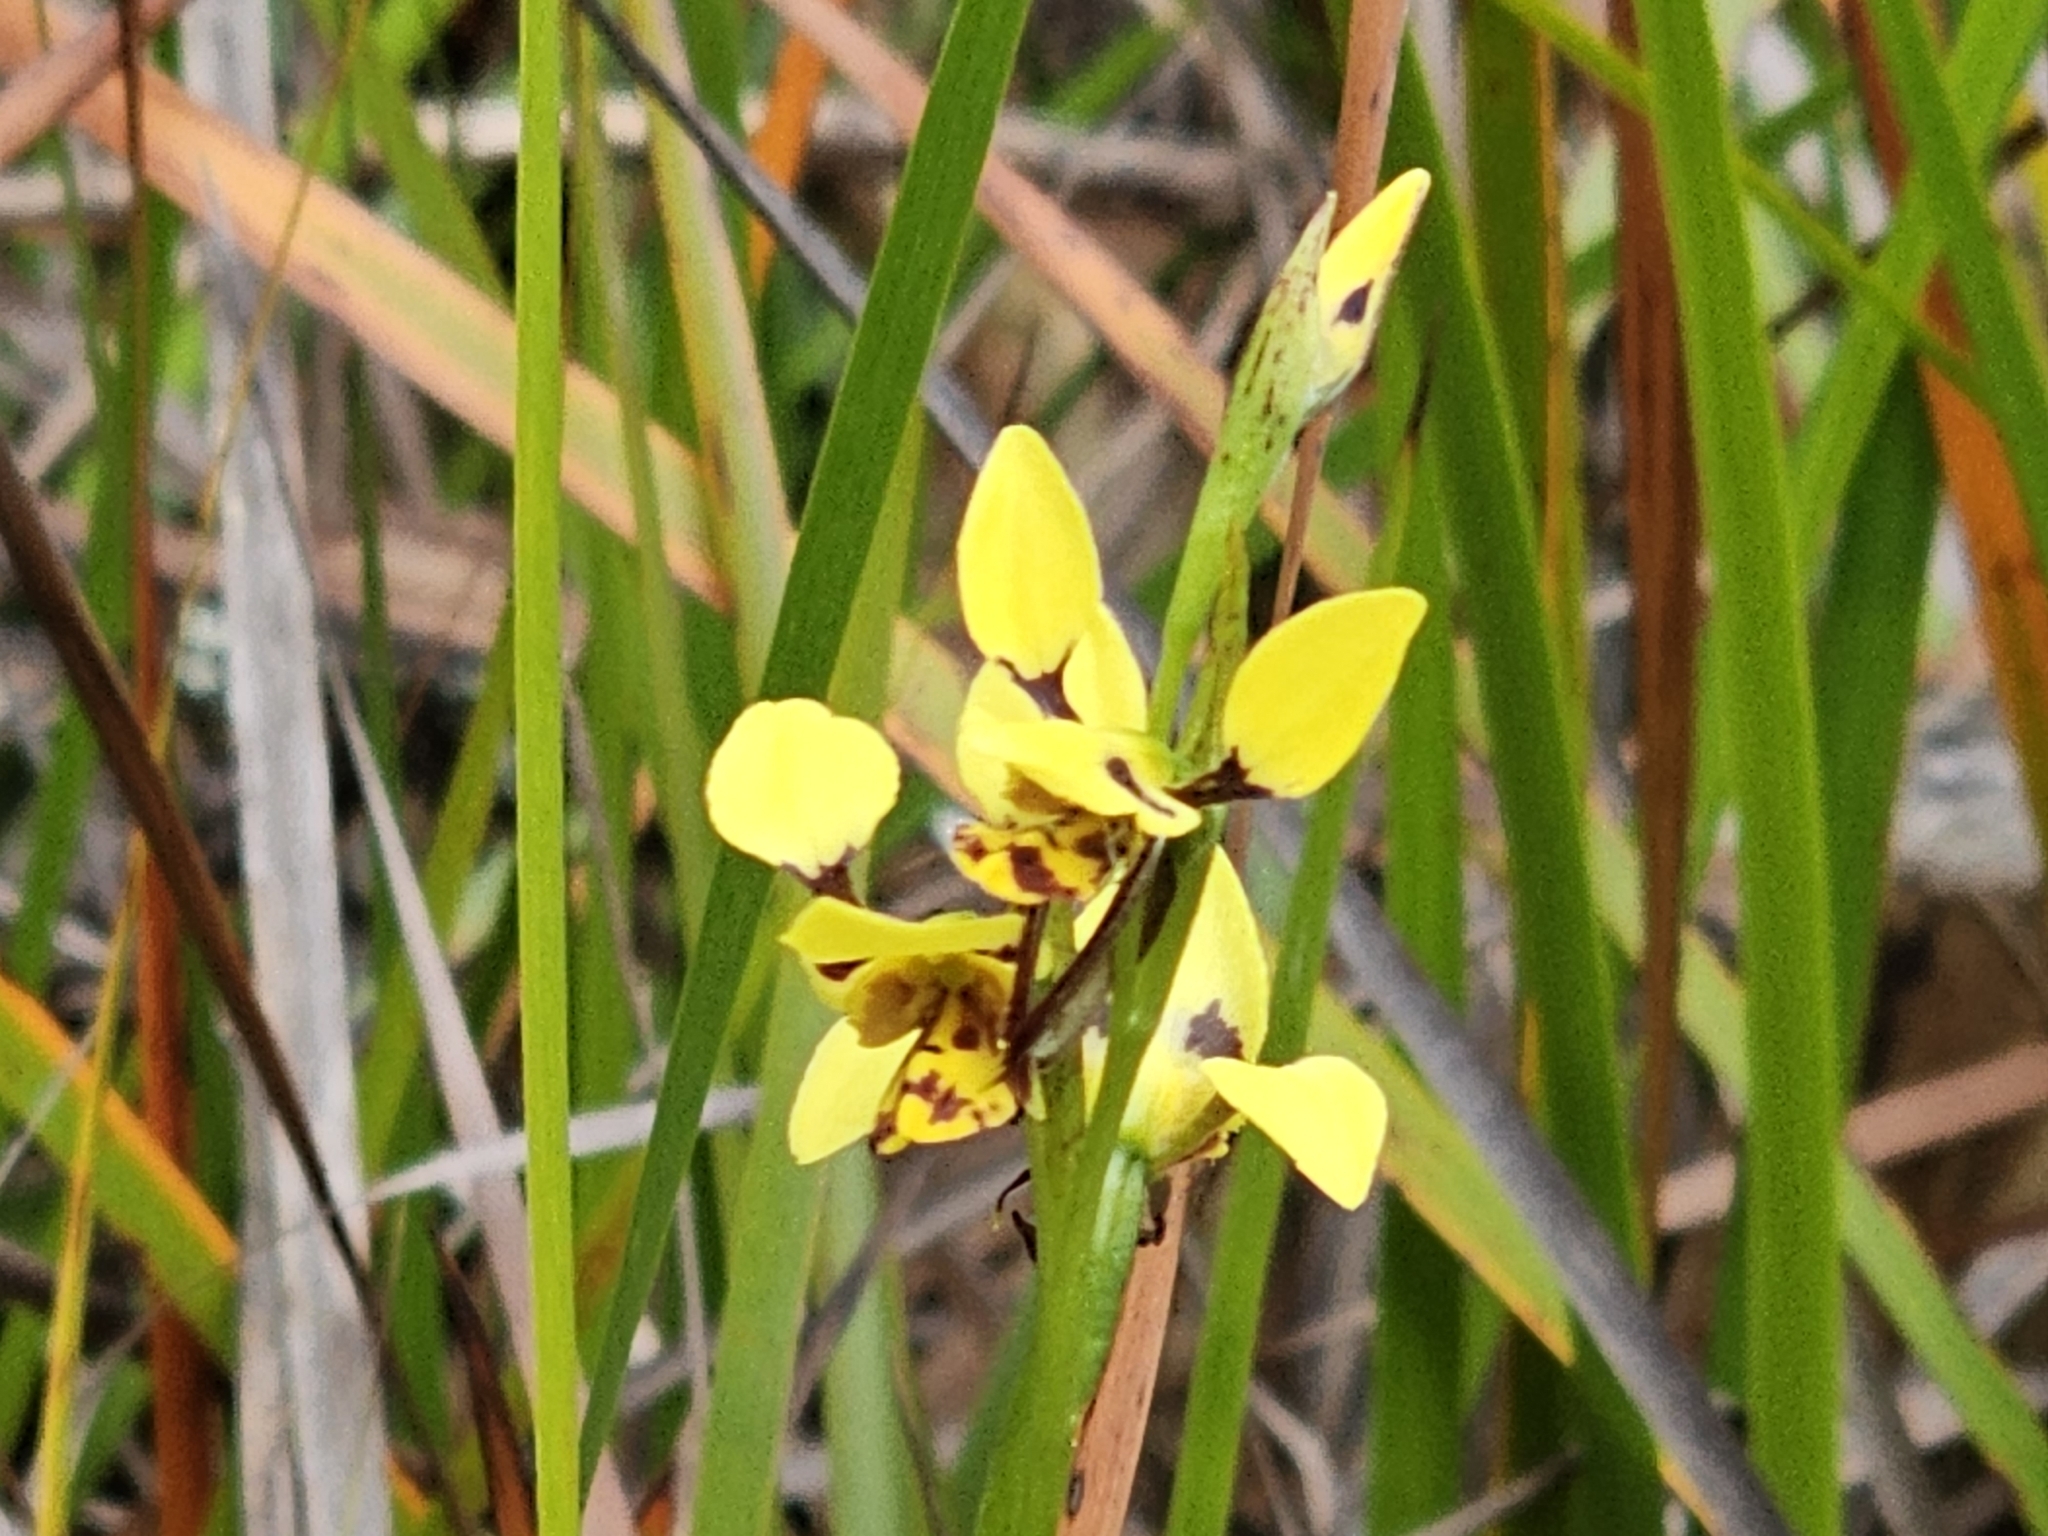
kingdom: Plantae
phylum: Tracheophyta
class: Liliopsida
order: Asparagales
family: Orchidaceae
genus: Diuris
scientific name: Diuris sulphurea
